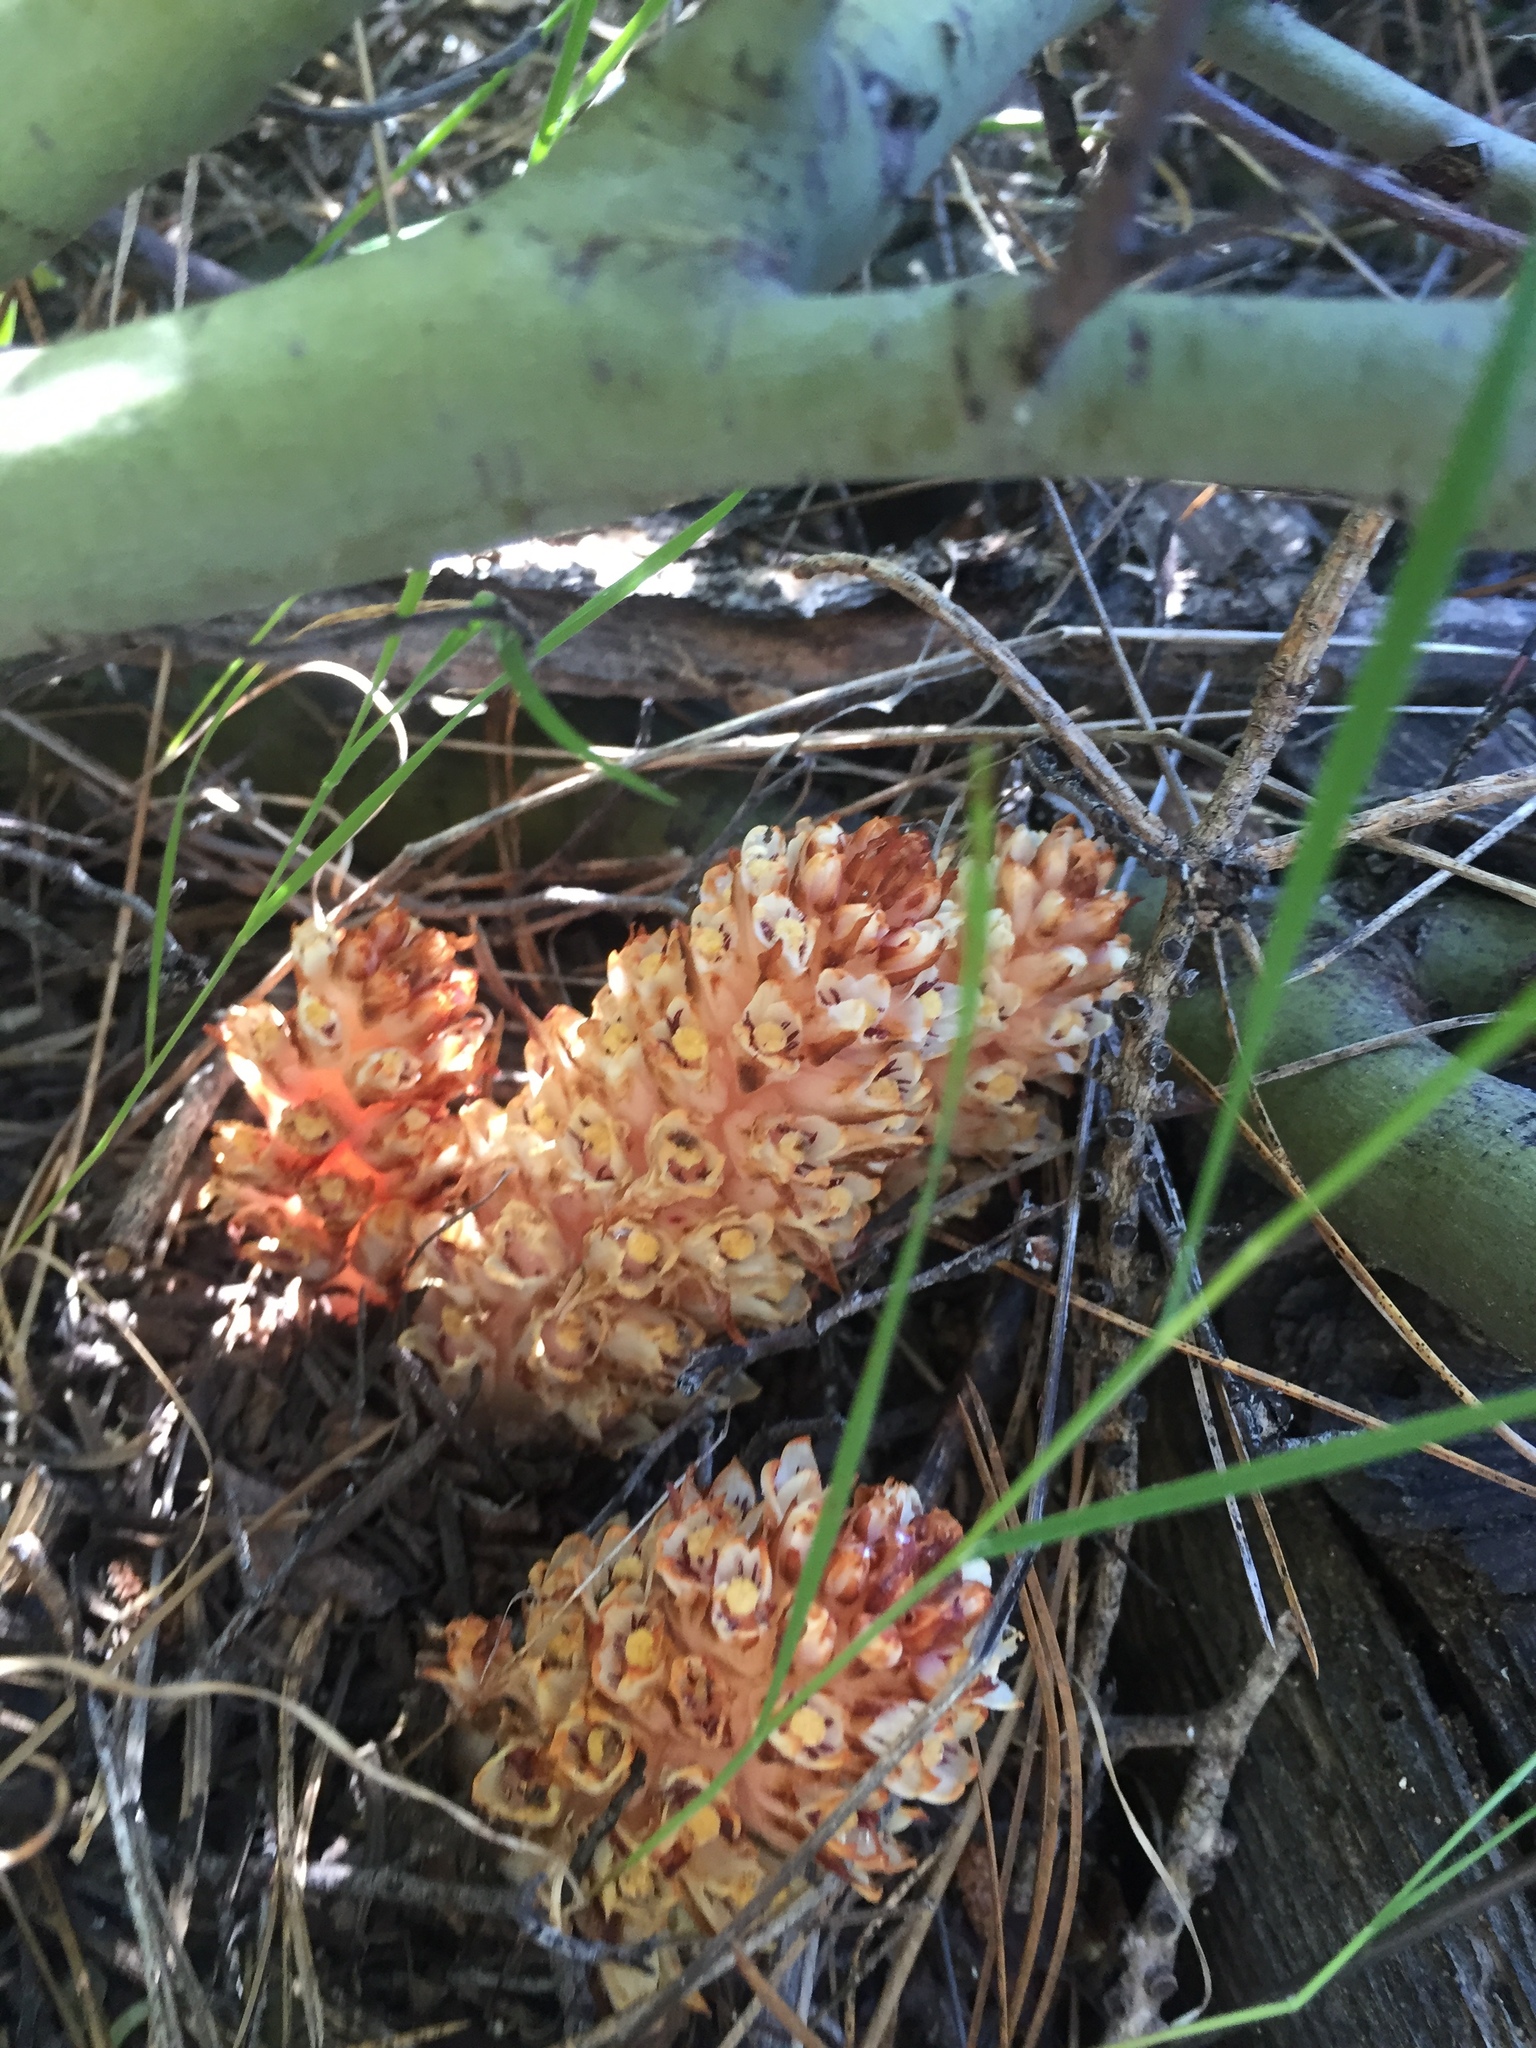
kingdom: Plantae
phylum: Tracheophyta
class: Magnoliopsida
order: Ericales
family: Ericaceae
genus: Pleuricospora
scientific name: Pleuricospora fimbriolata
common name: Fringed pinesap
